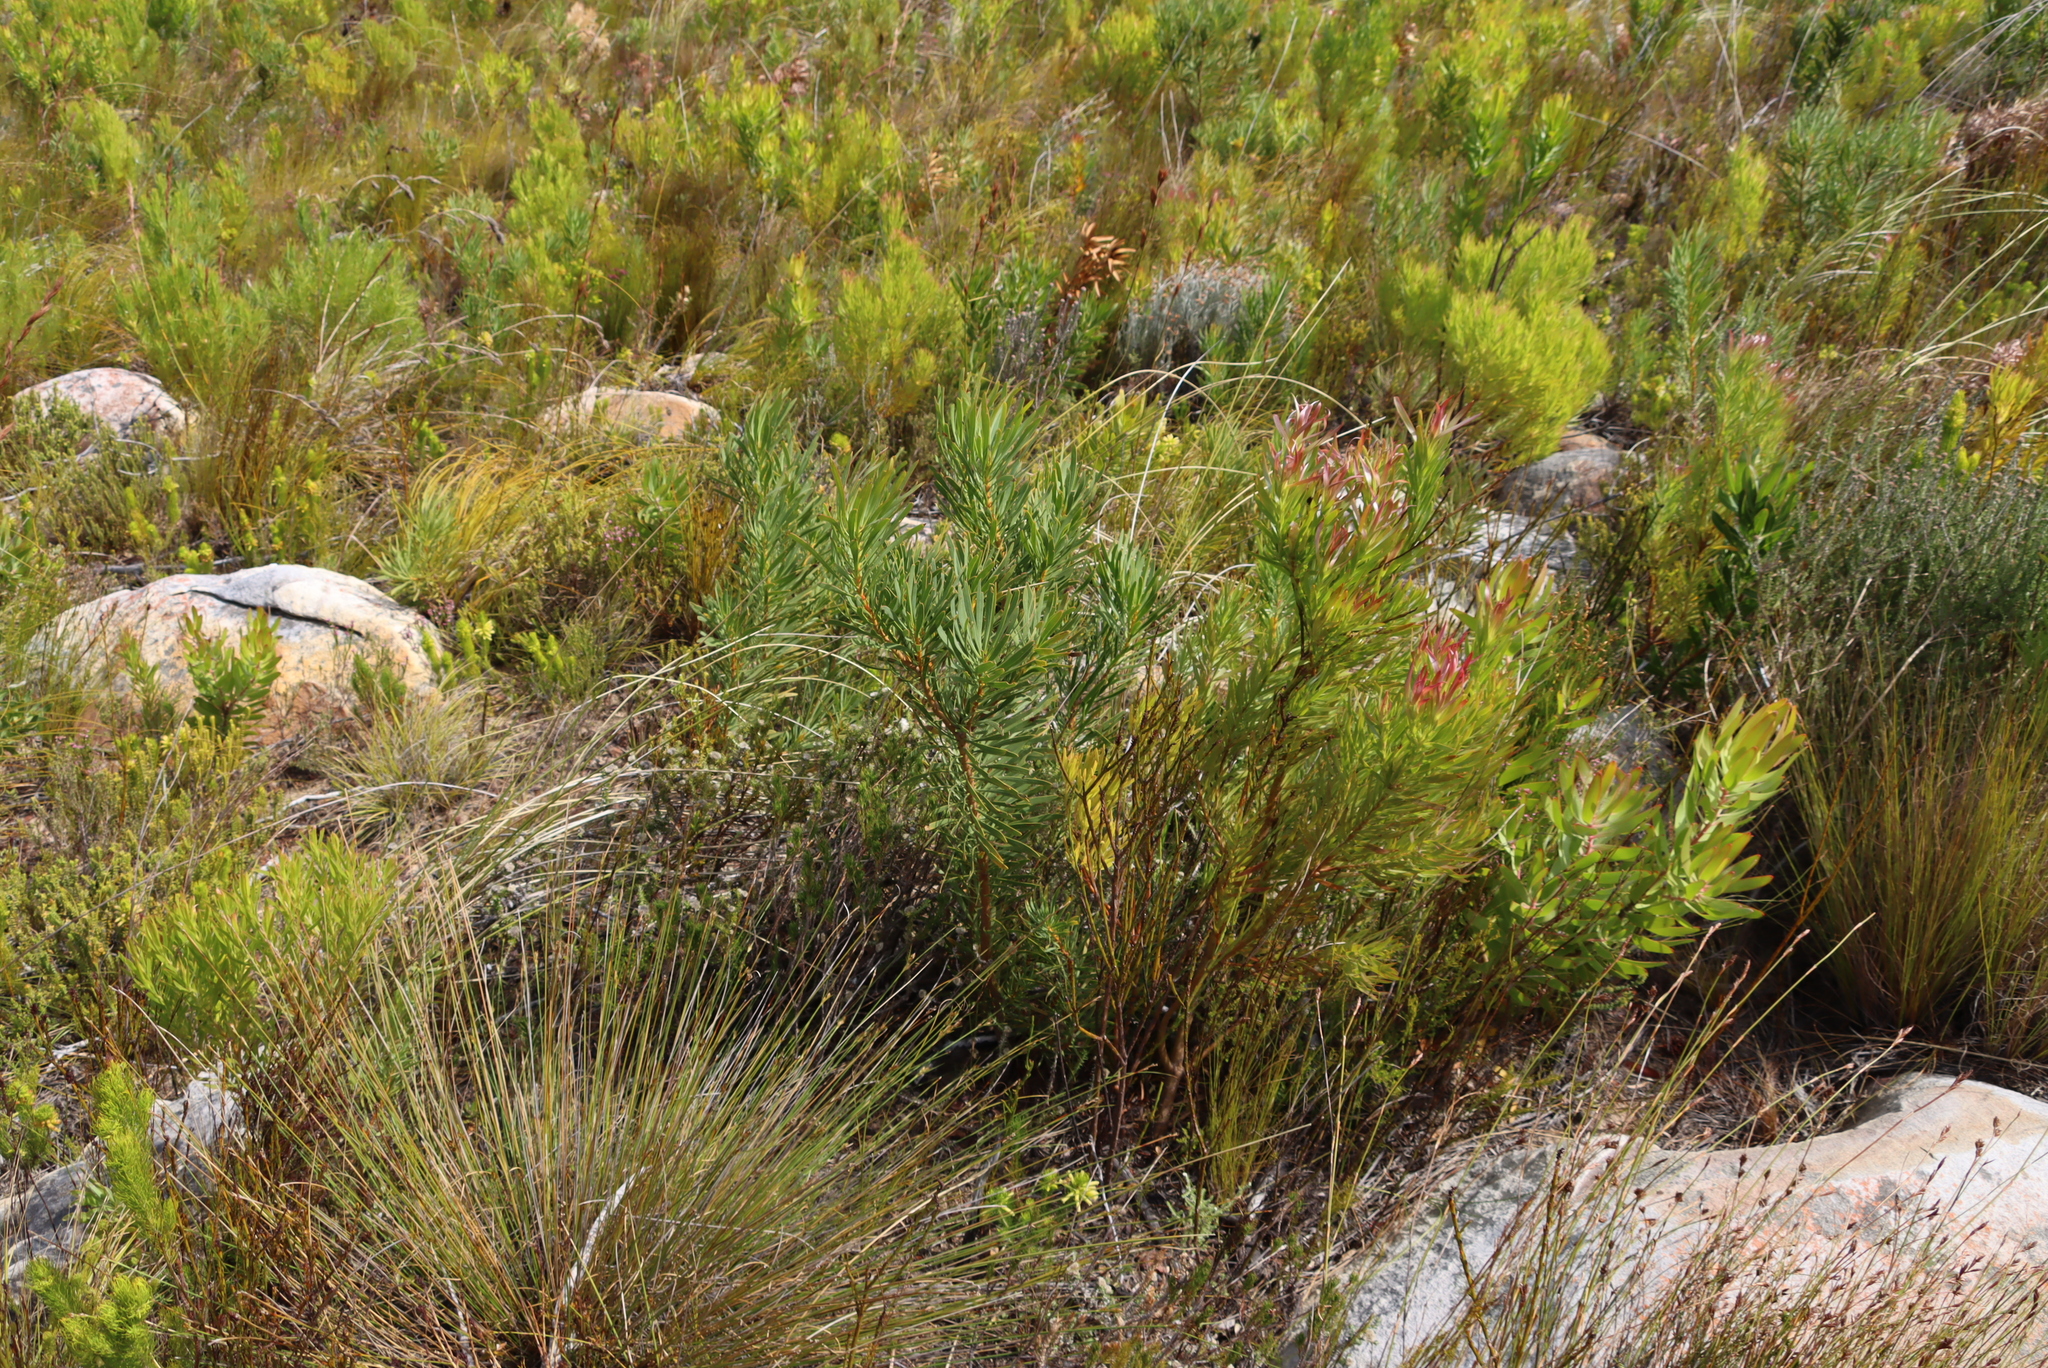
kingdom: Plantae
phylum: Tracheophyta
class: Magnoliopsida
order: Proteales
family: Proteaceae
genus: Protea
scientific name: Protea repens
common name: Sugarbush
